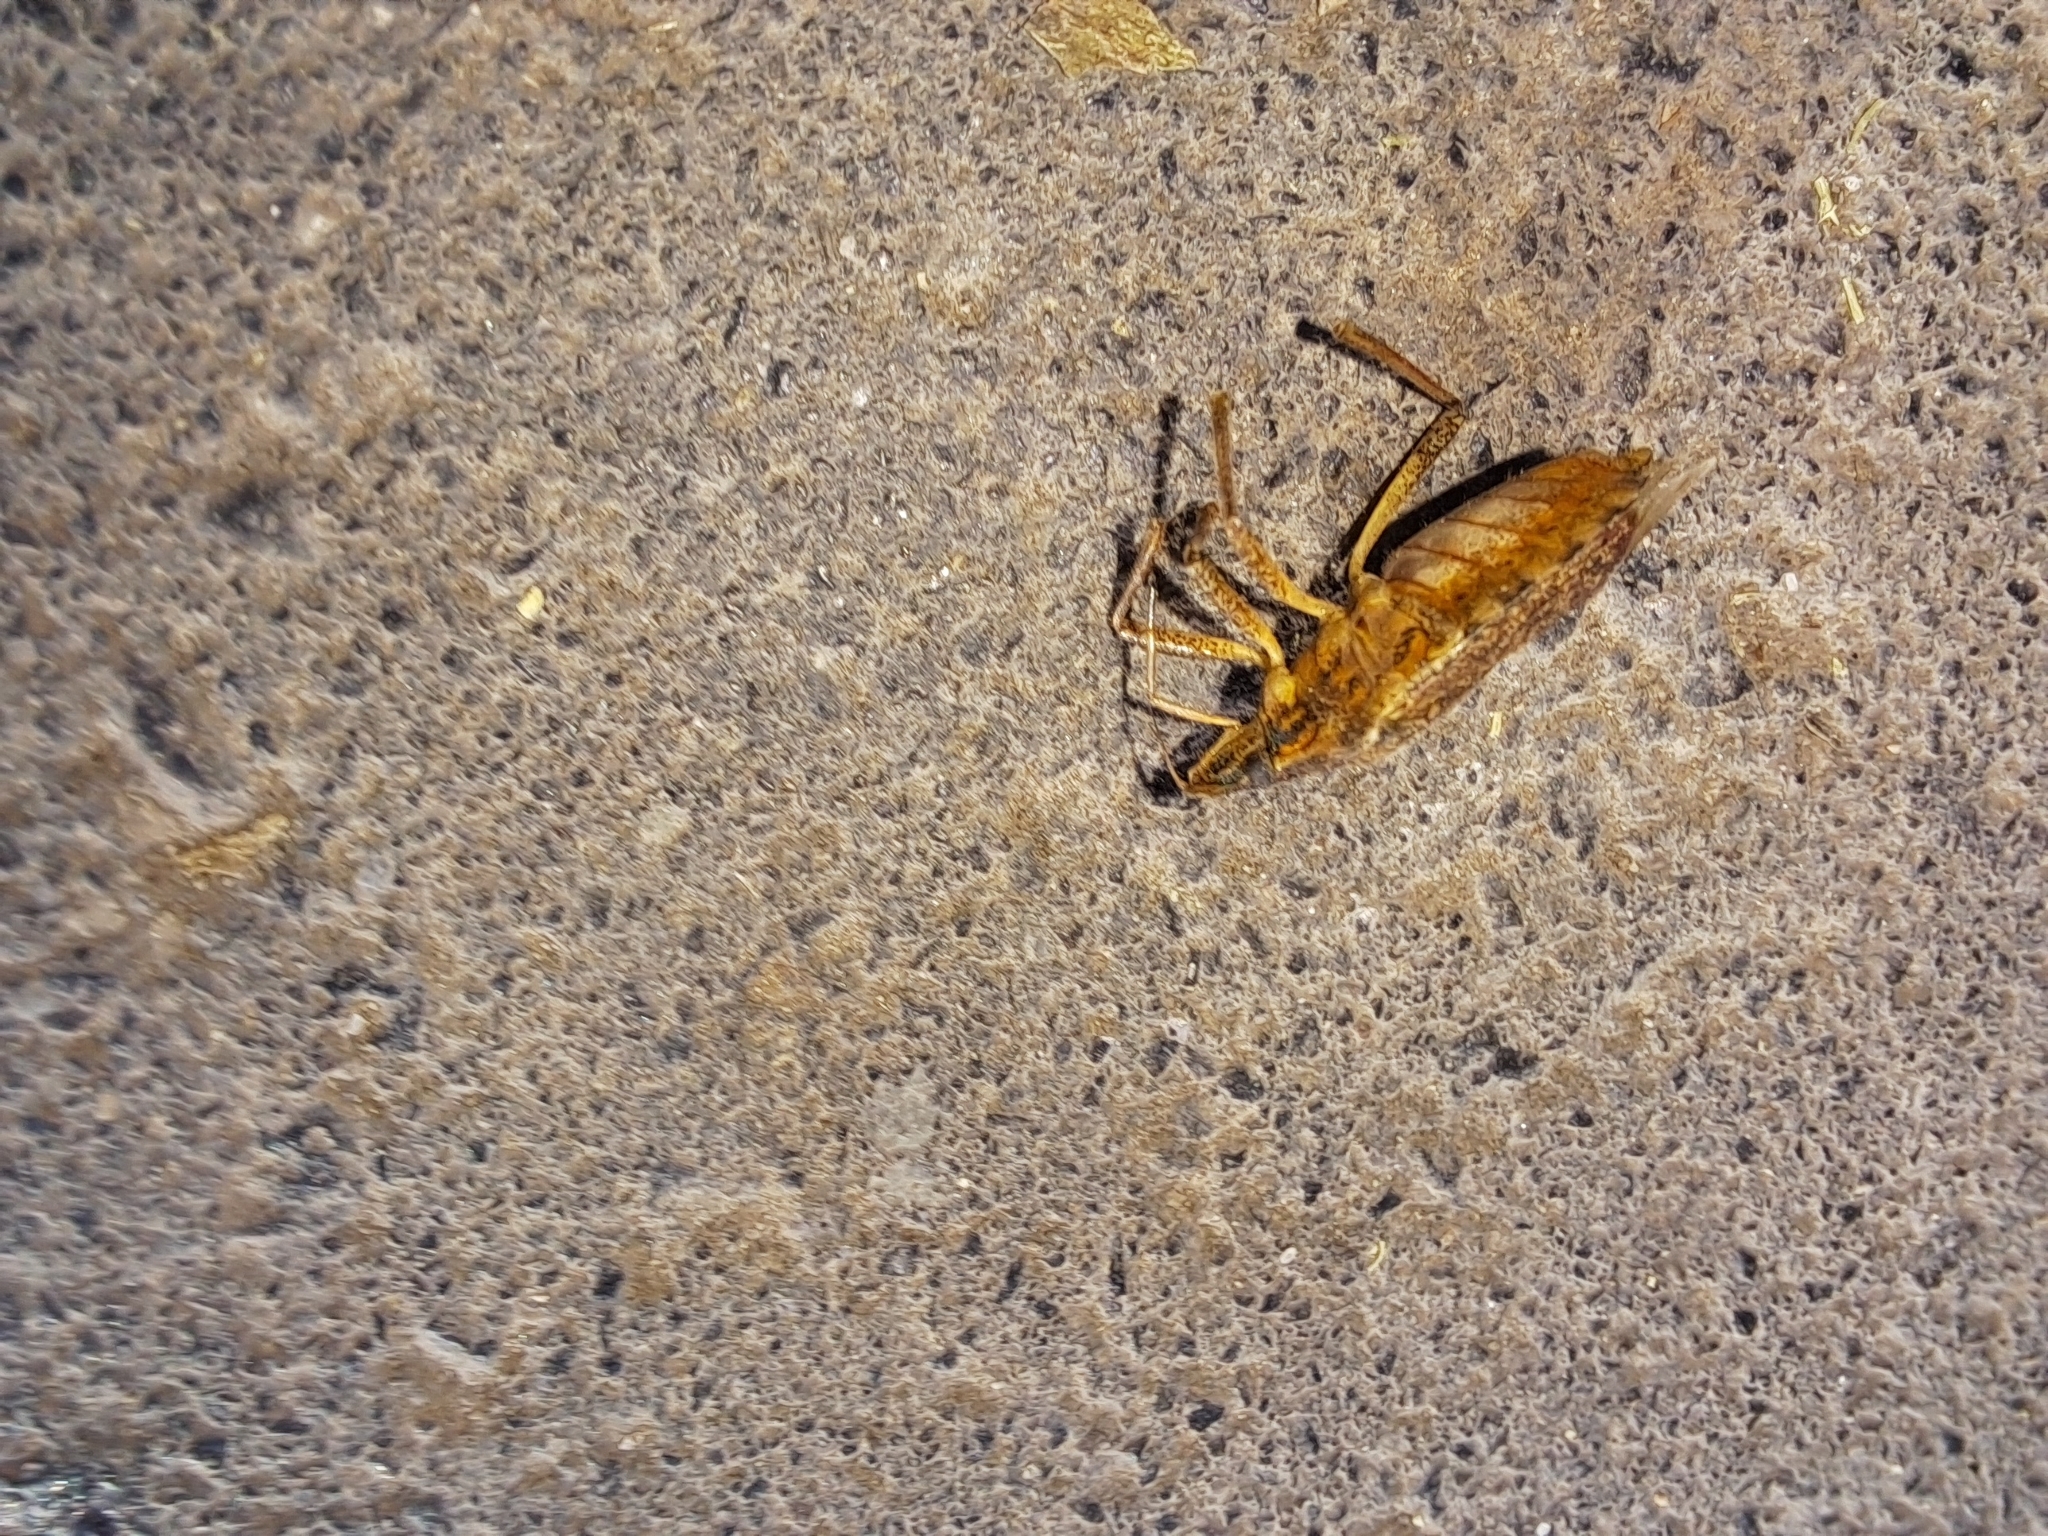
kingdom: Animalia
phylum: Arthropoda
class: Insecta
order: Hemiptera
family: Pentatomidae
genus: Halyomorpha
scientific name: Halyomorpha halys
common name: Brown marmorated stink bug
